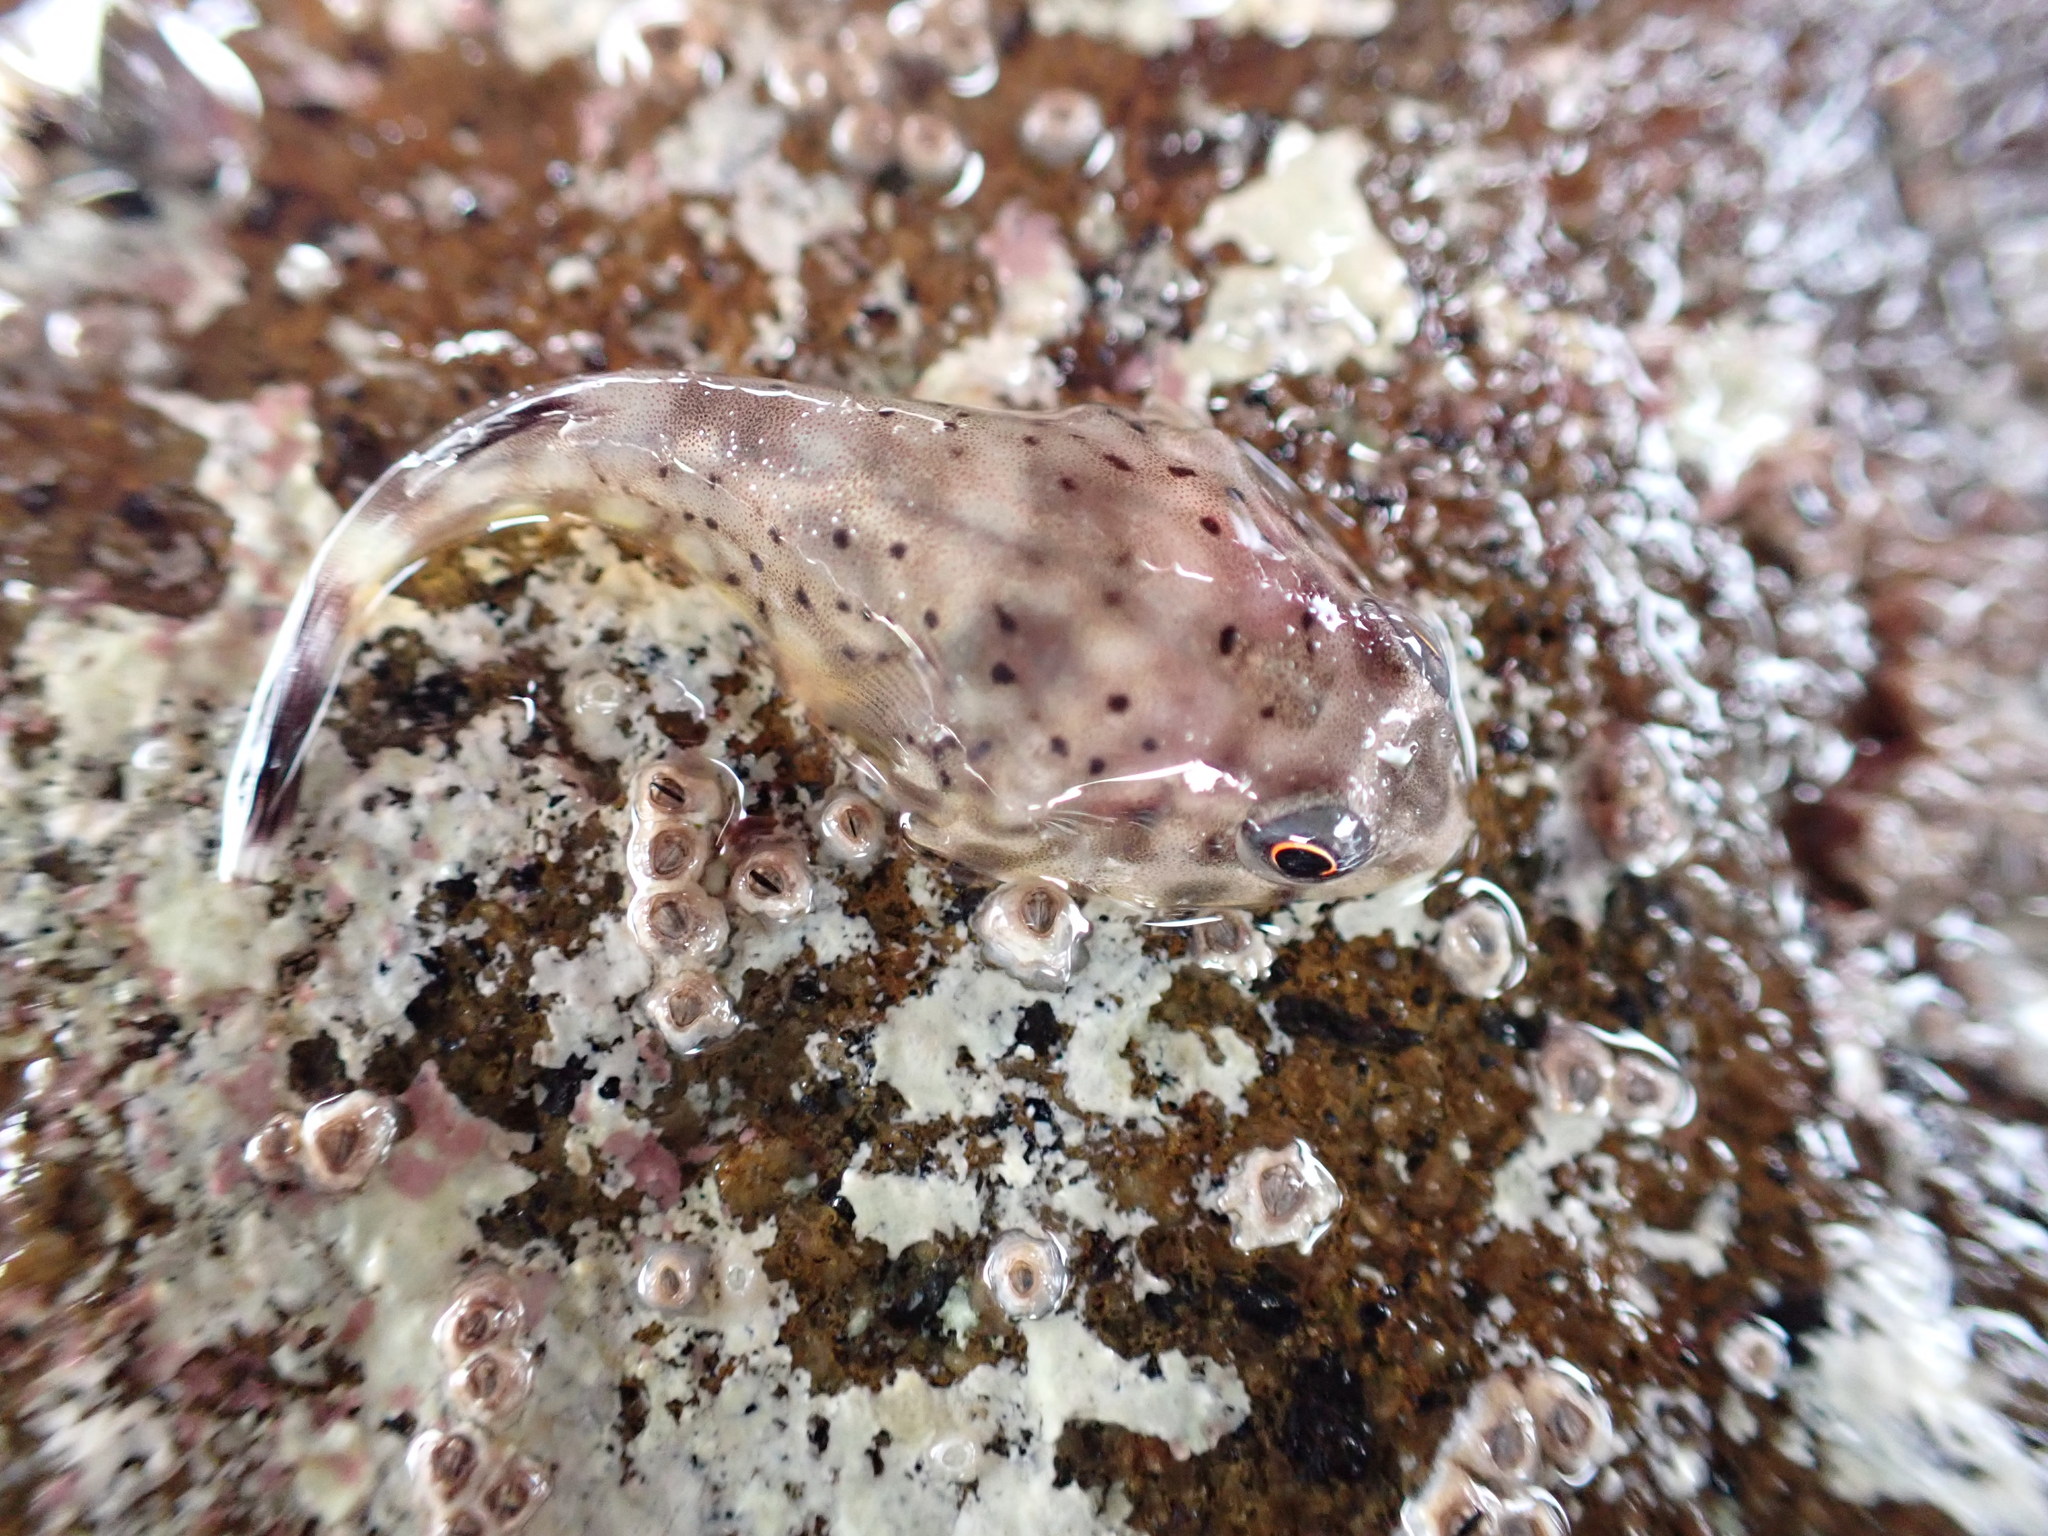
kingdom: Animalia
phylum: Chordata
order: Gobiesociformes
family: Gobiesocidae
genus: Diplocrepis
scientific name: Diplocrepis puniceus
